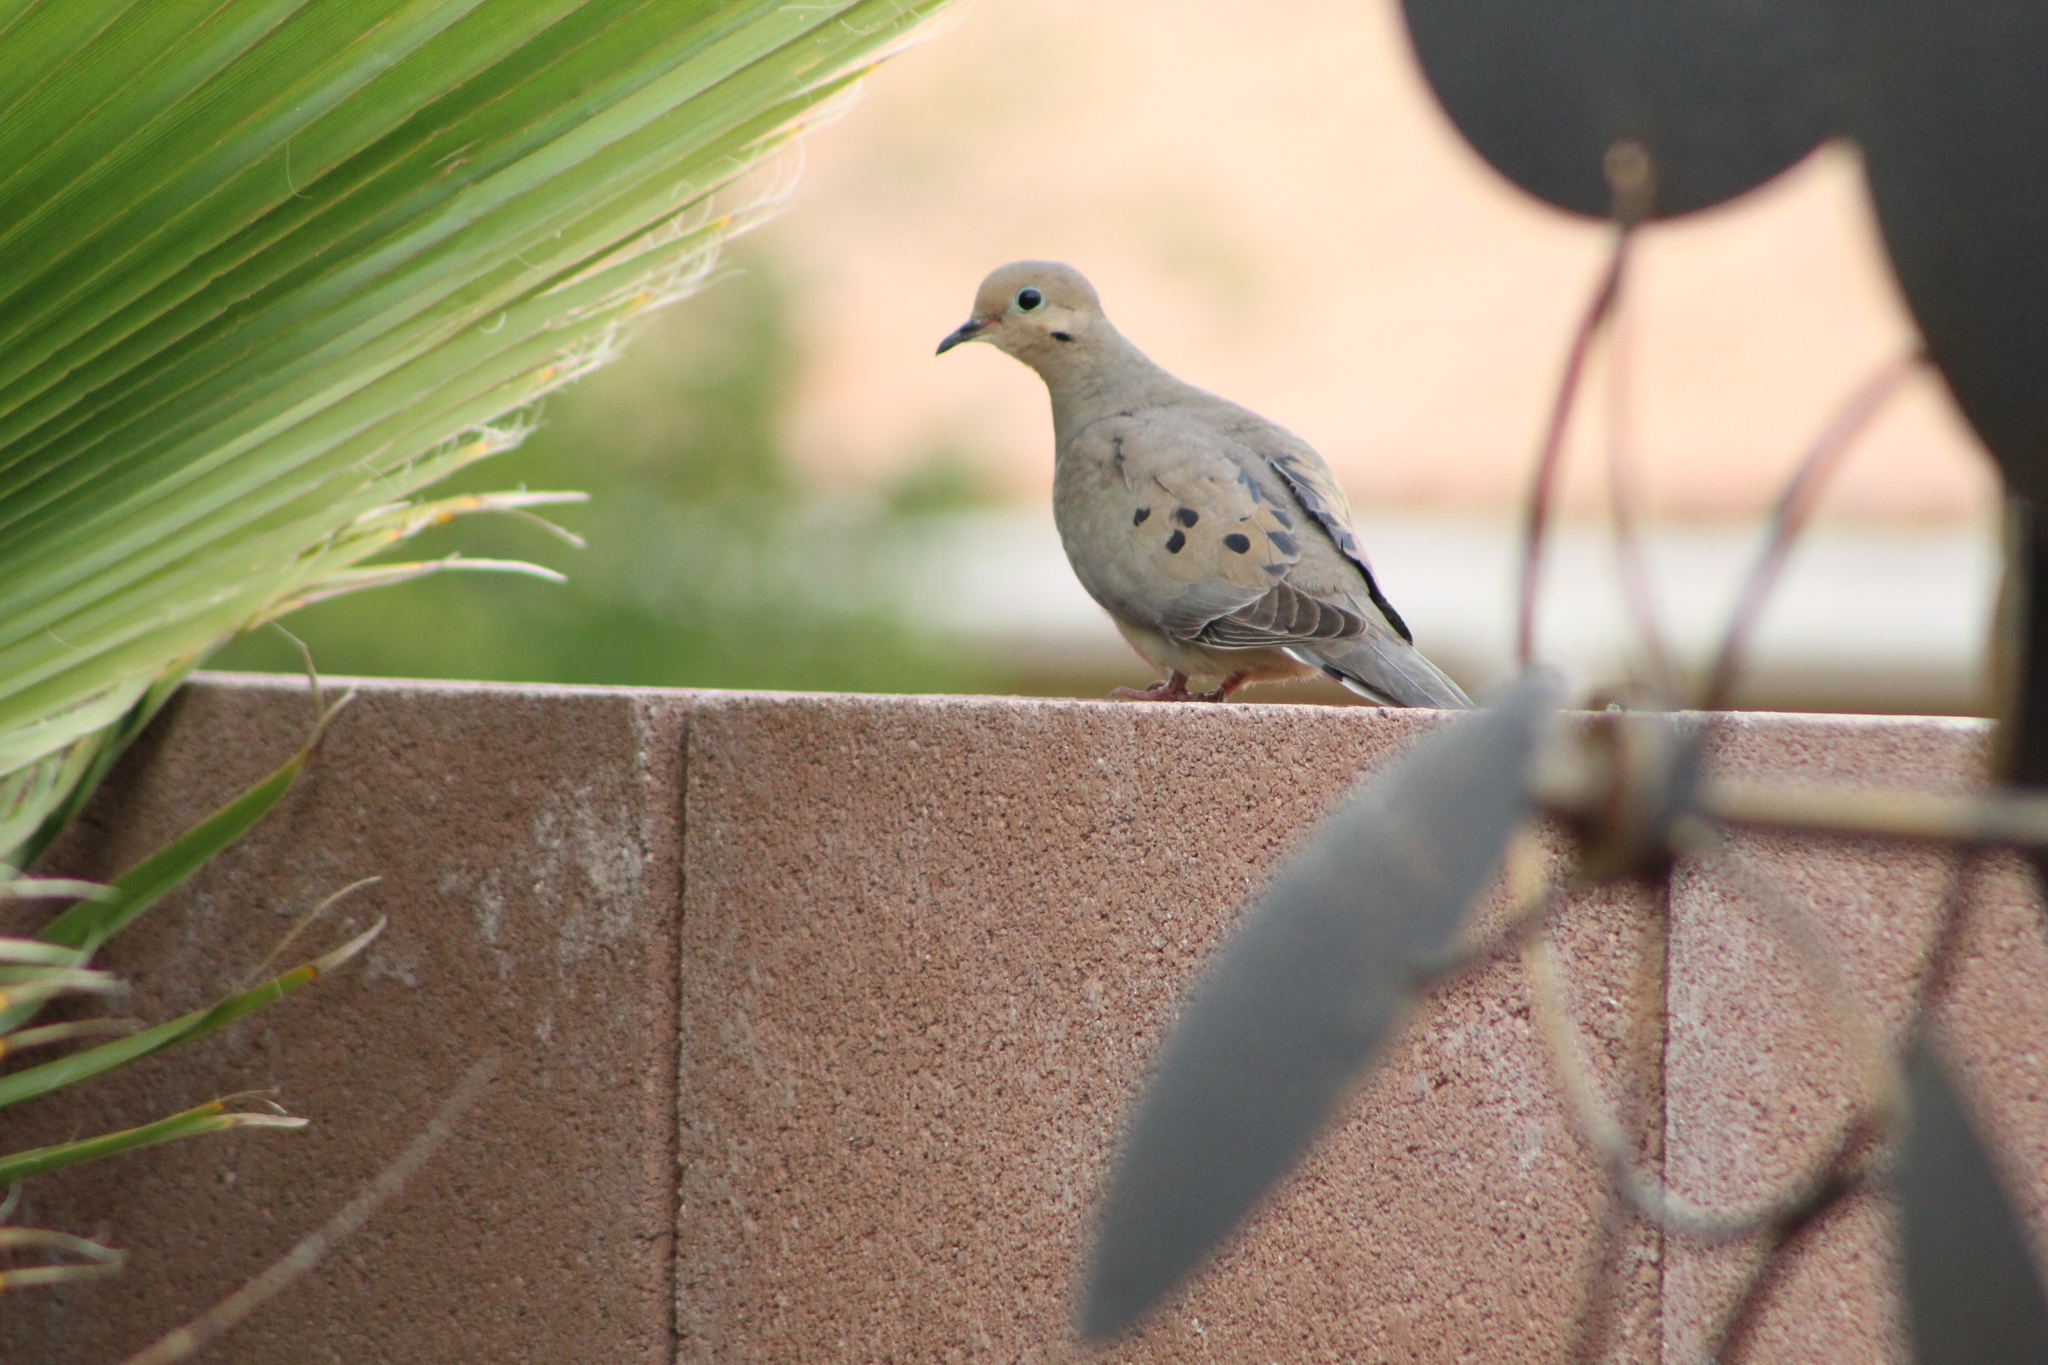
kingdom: Animalia
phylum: Chordata
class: Aves
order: Columbiformes
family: Columbidae
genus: Zenaida
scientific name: Zenaida macroura
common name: Mourning dove
